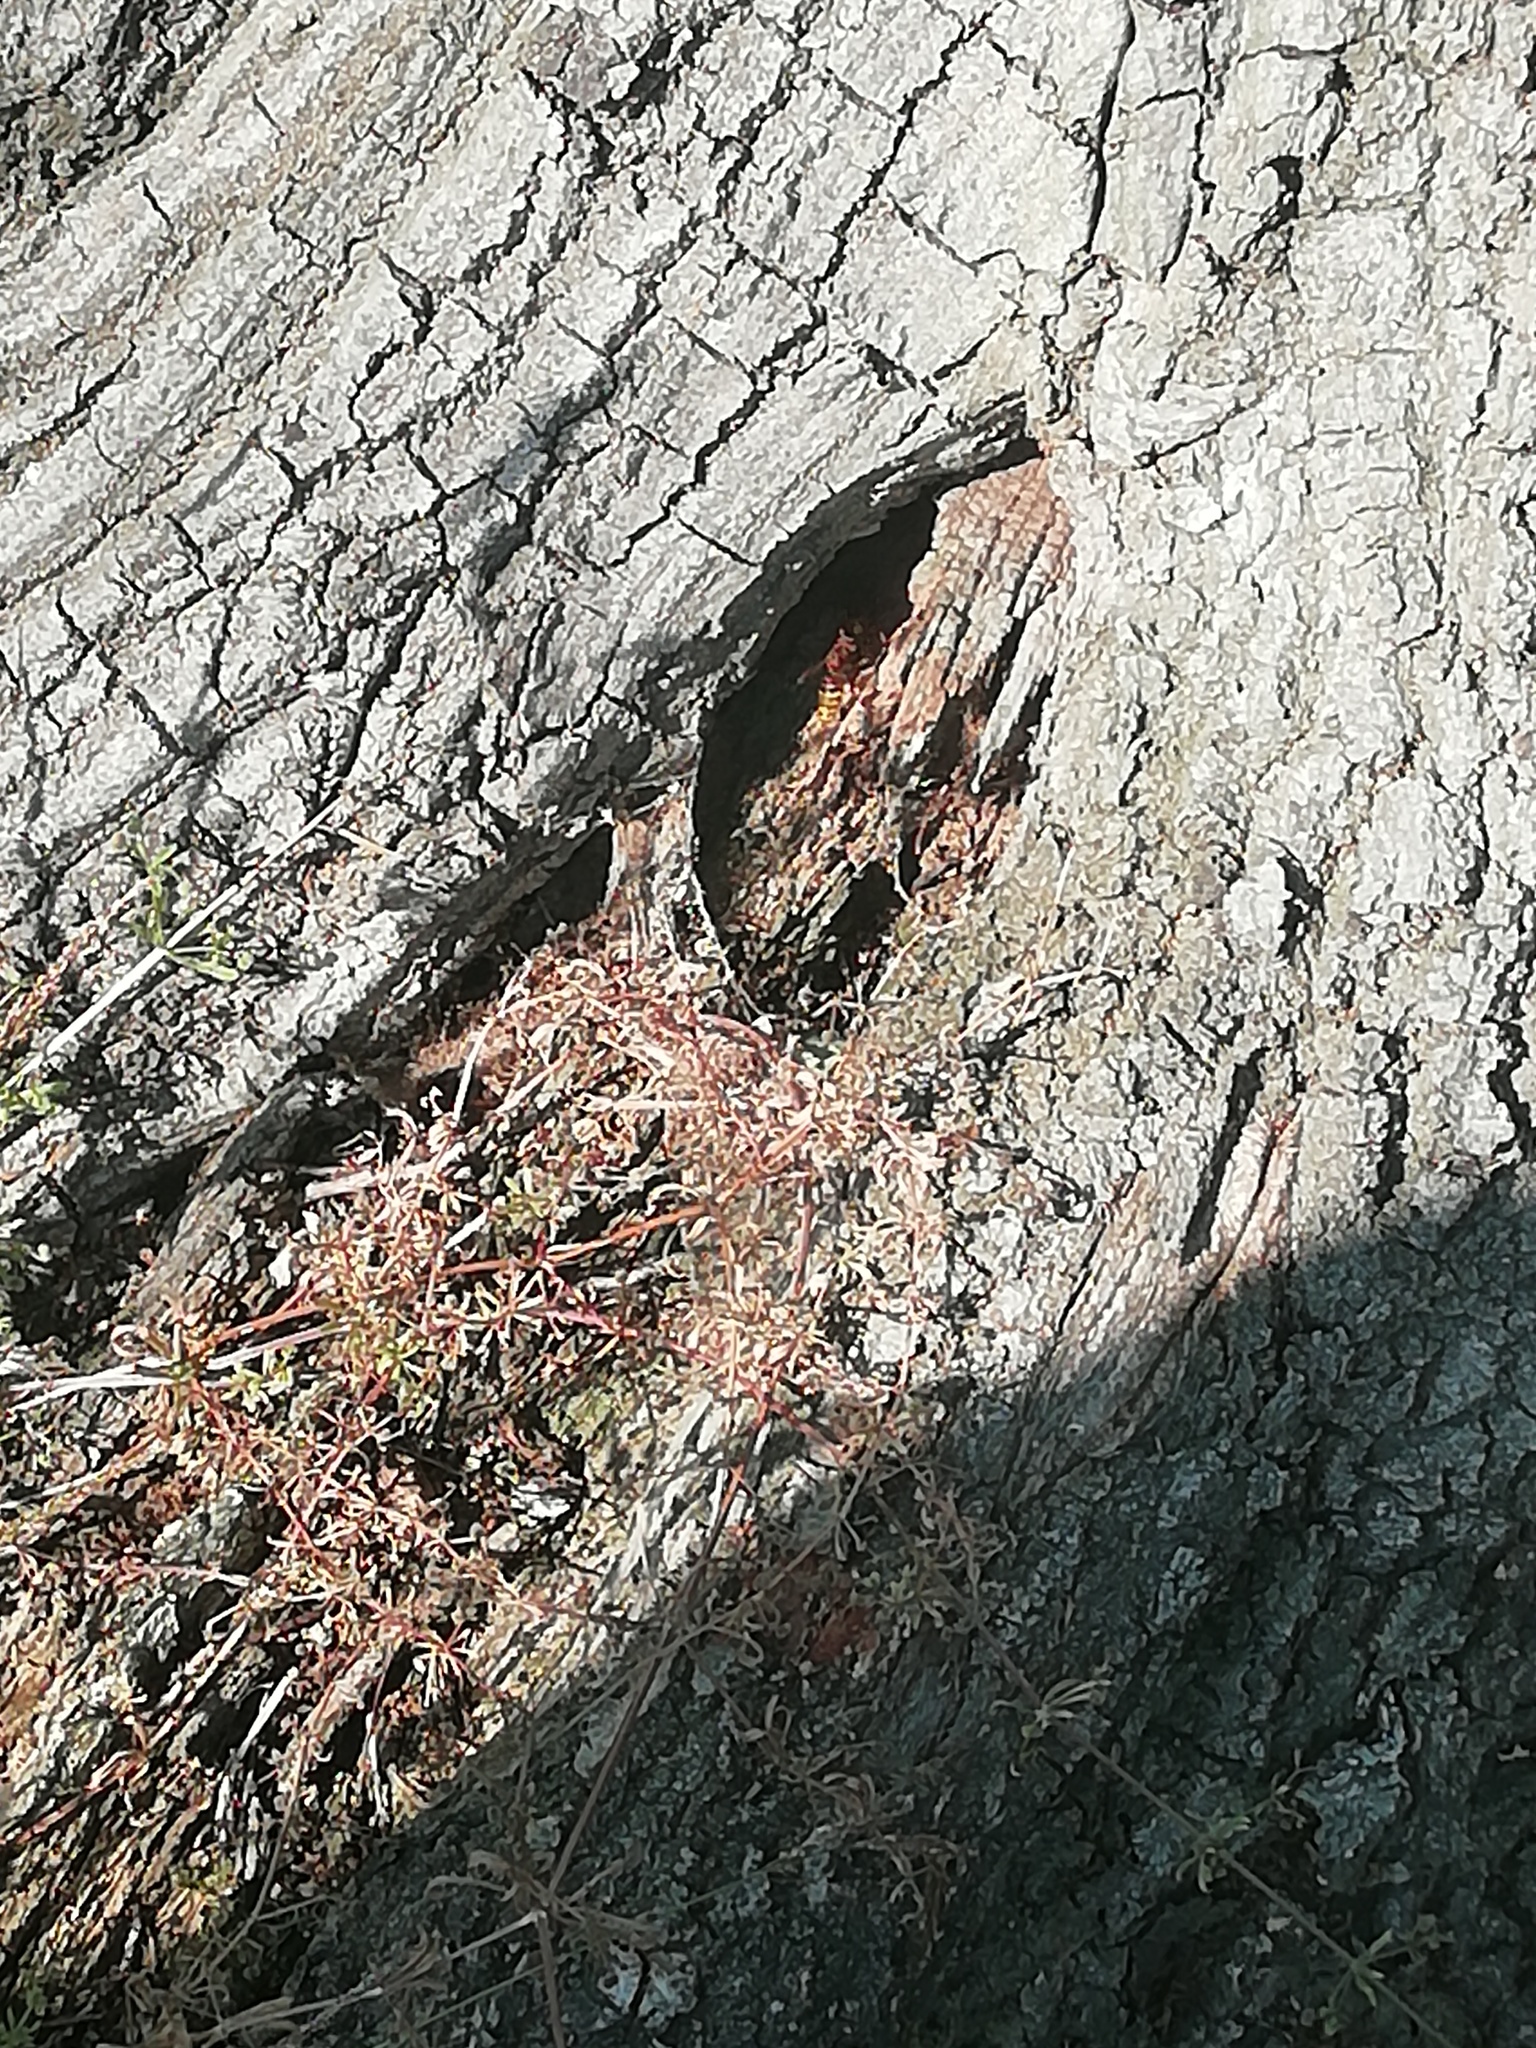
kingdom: Animalia
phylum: Arthropoda
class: Insecta
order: Hymenoptera
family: Vespidae
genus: Vespa
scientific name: Vespa crabro
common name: Hornet
